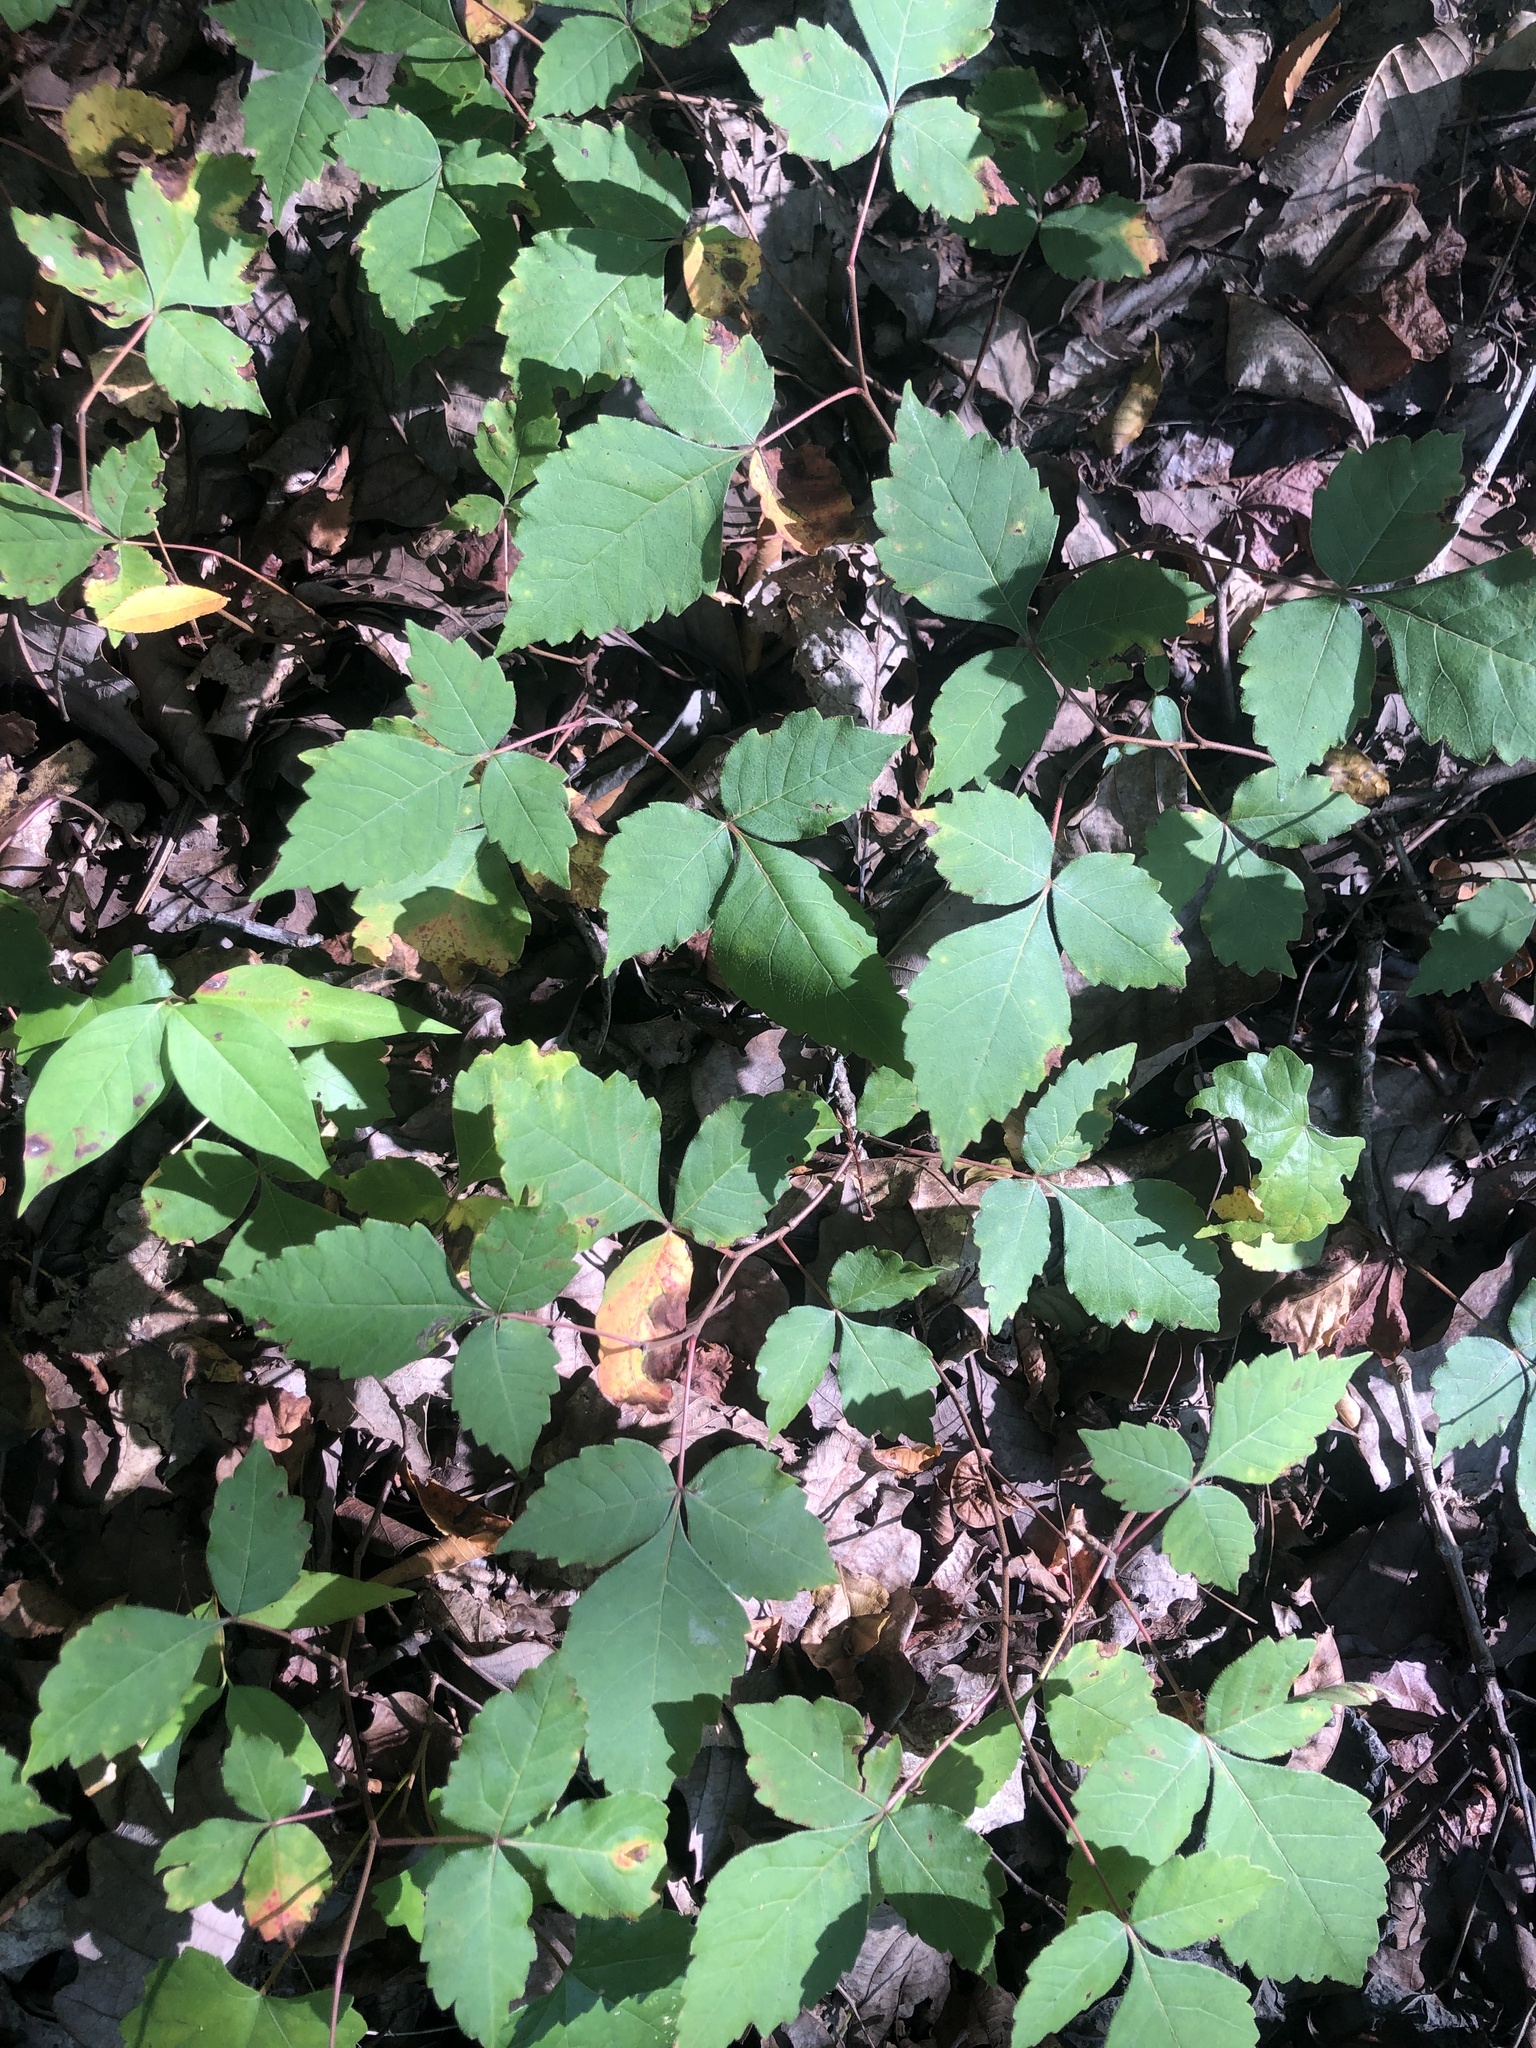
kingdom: Plantae
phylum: Tracheophyta
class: Magnoliopsida
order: Sapindales
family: Anacardiaceae
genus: Rhus
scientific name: Rhus aromatica
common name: Aromatic sumac
